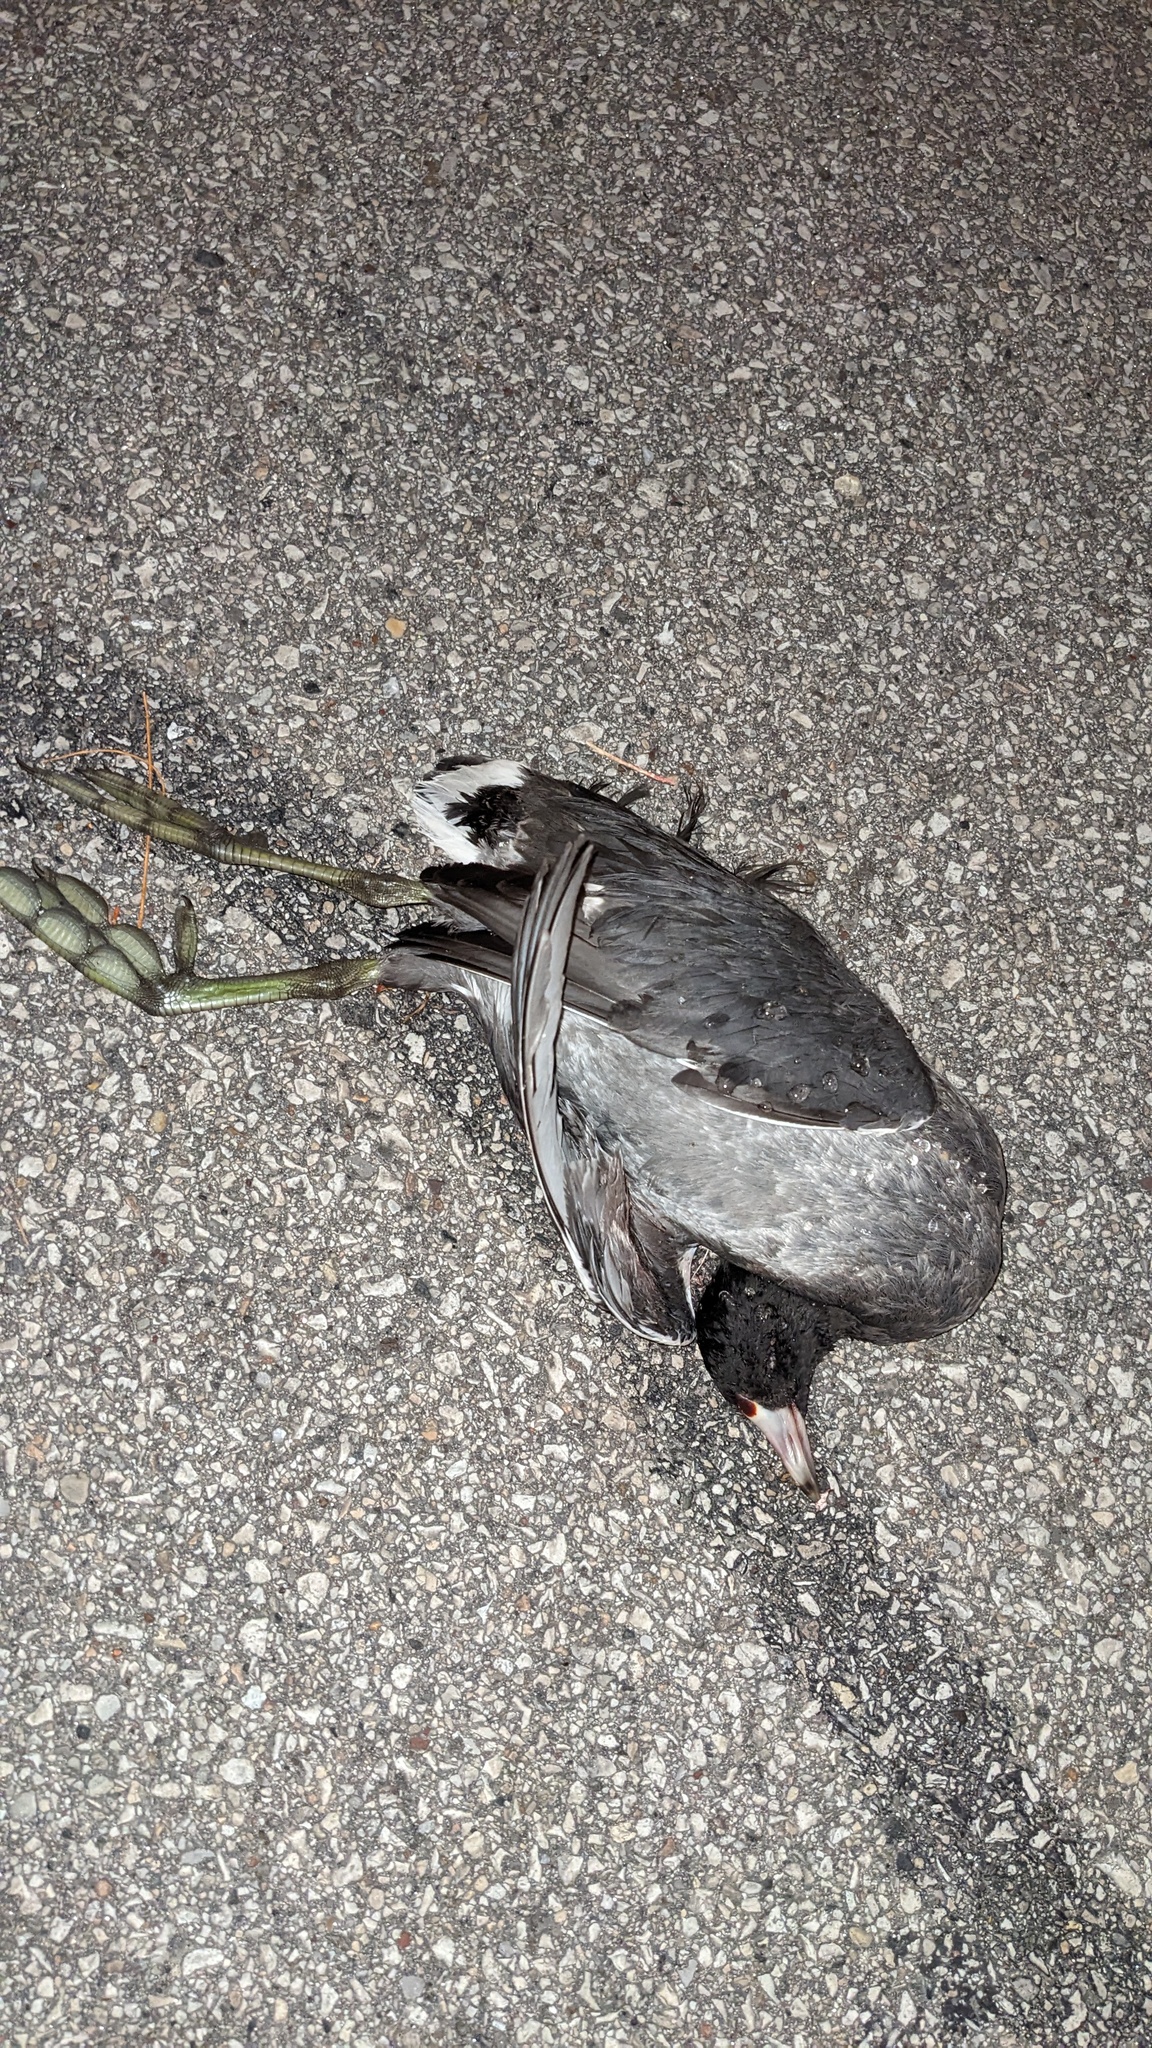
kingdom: Animalia
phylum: Chordata
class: Aves
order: Gruiformes
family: Rallidae
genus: Fulica
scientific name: Fulica americana
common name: American coot
